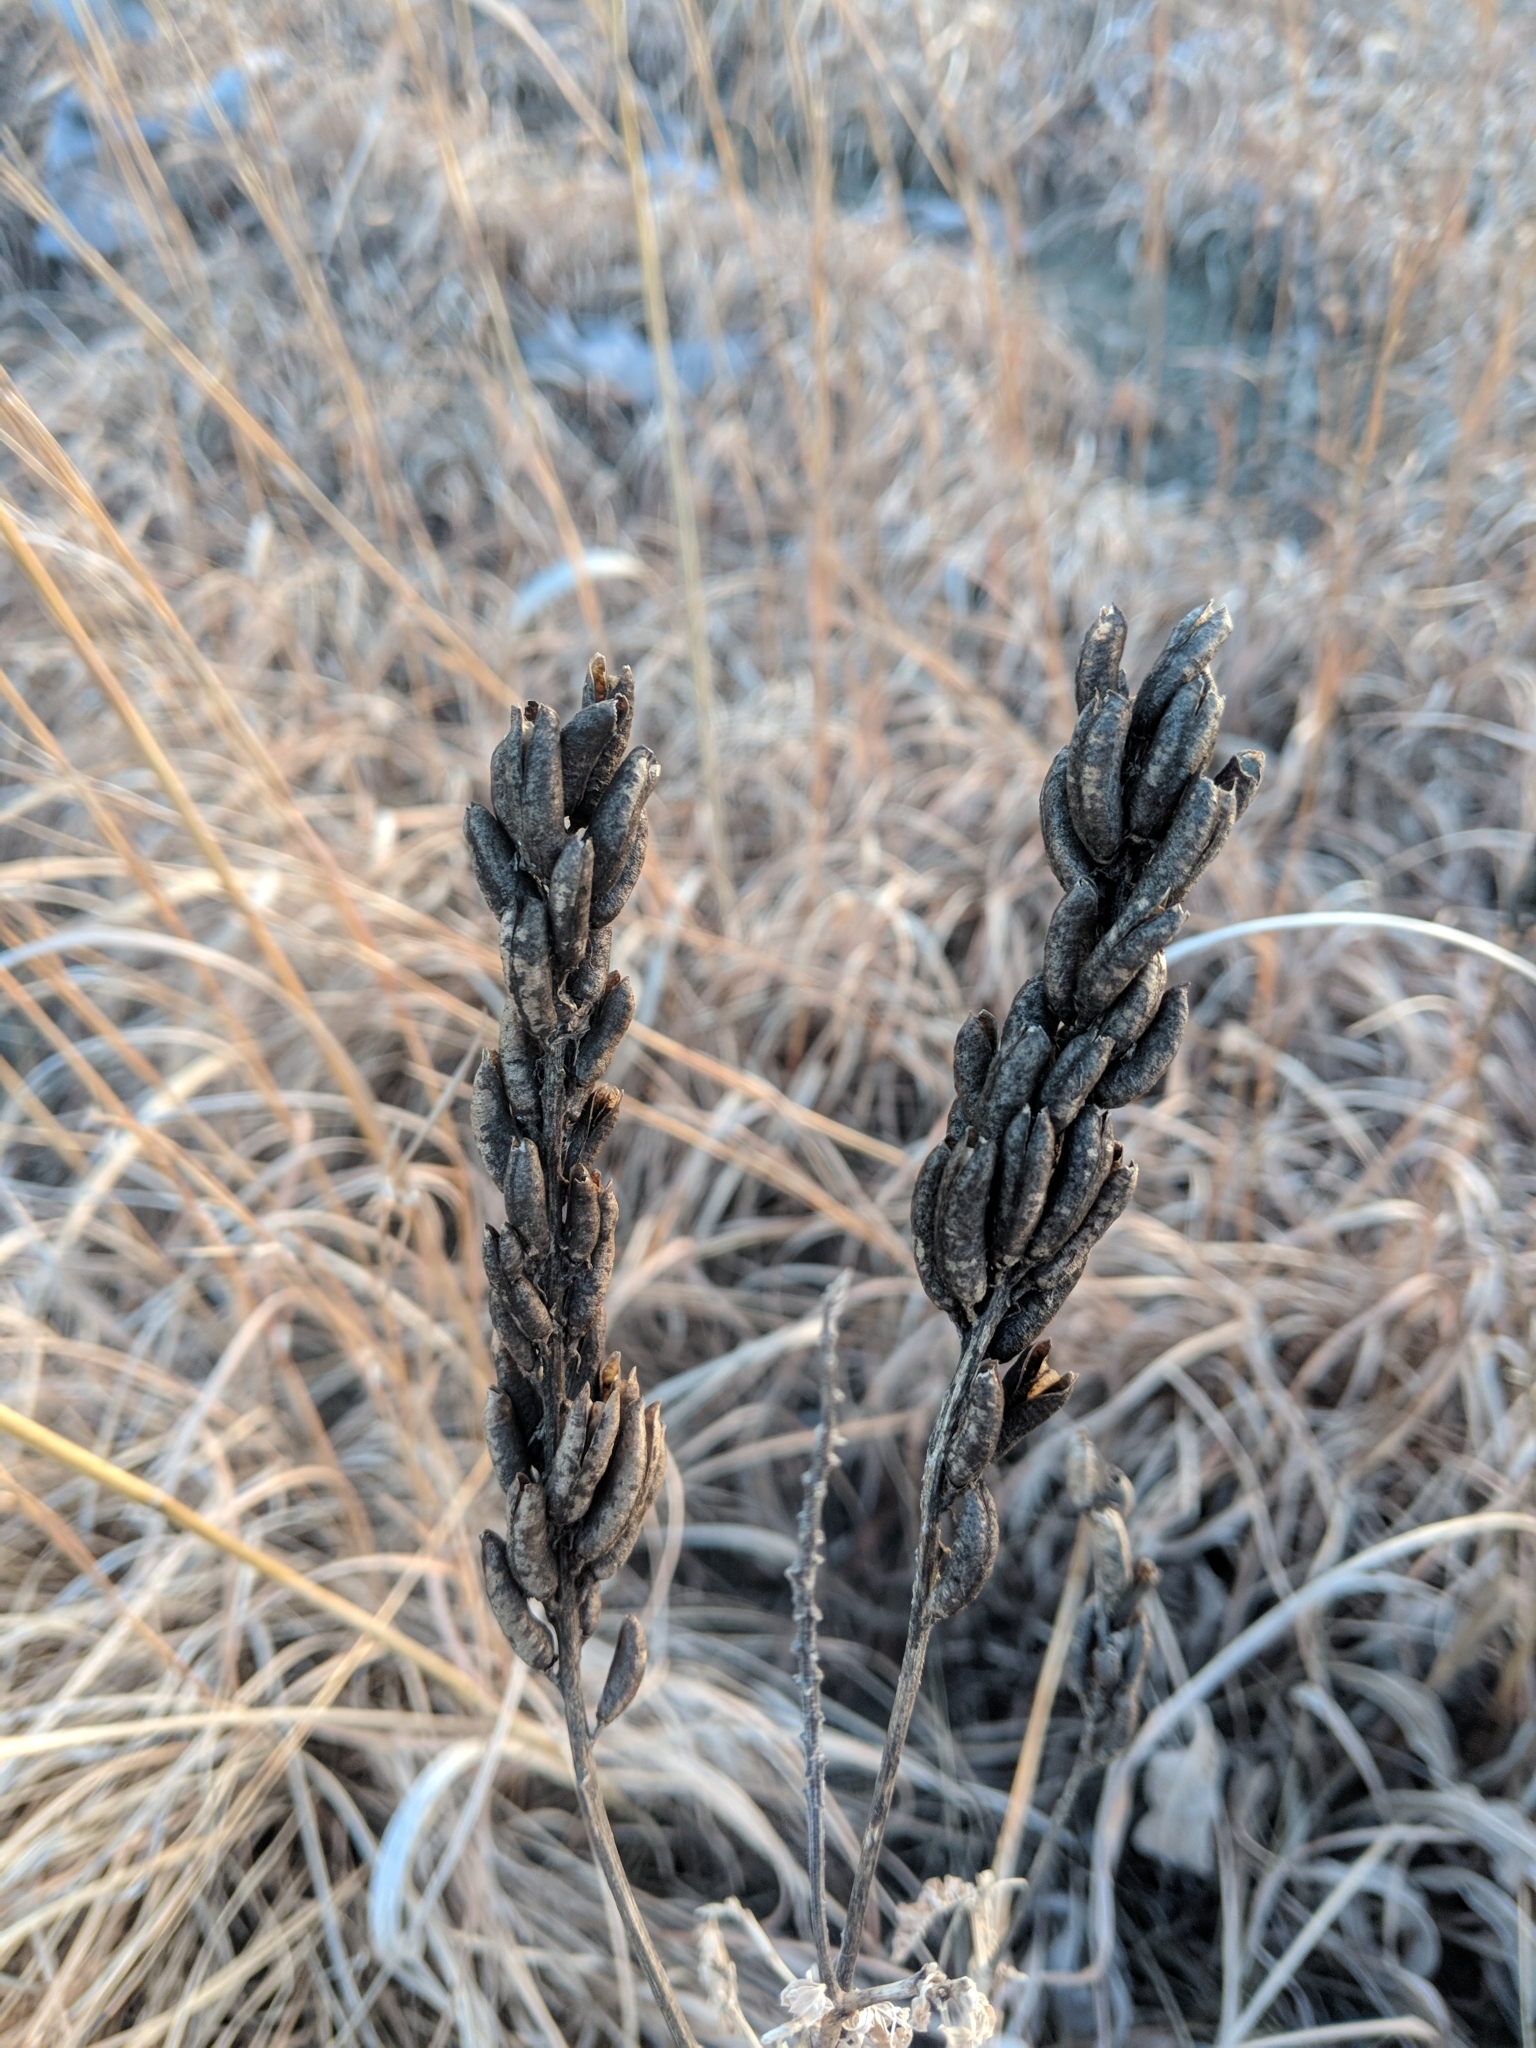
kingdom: Plantae
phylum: Tracheophyta
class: Magnoliopsida
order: Fabales
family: Fabaceae
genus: Astragalus
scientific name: Astragalus canadensis
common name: Canada milk-vetch
